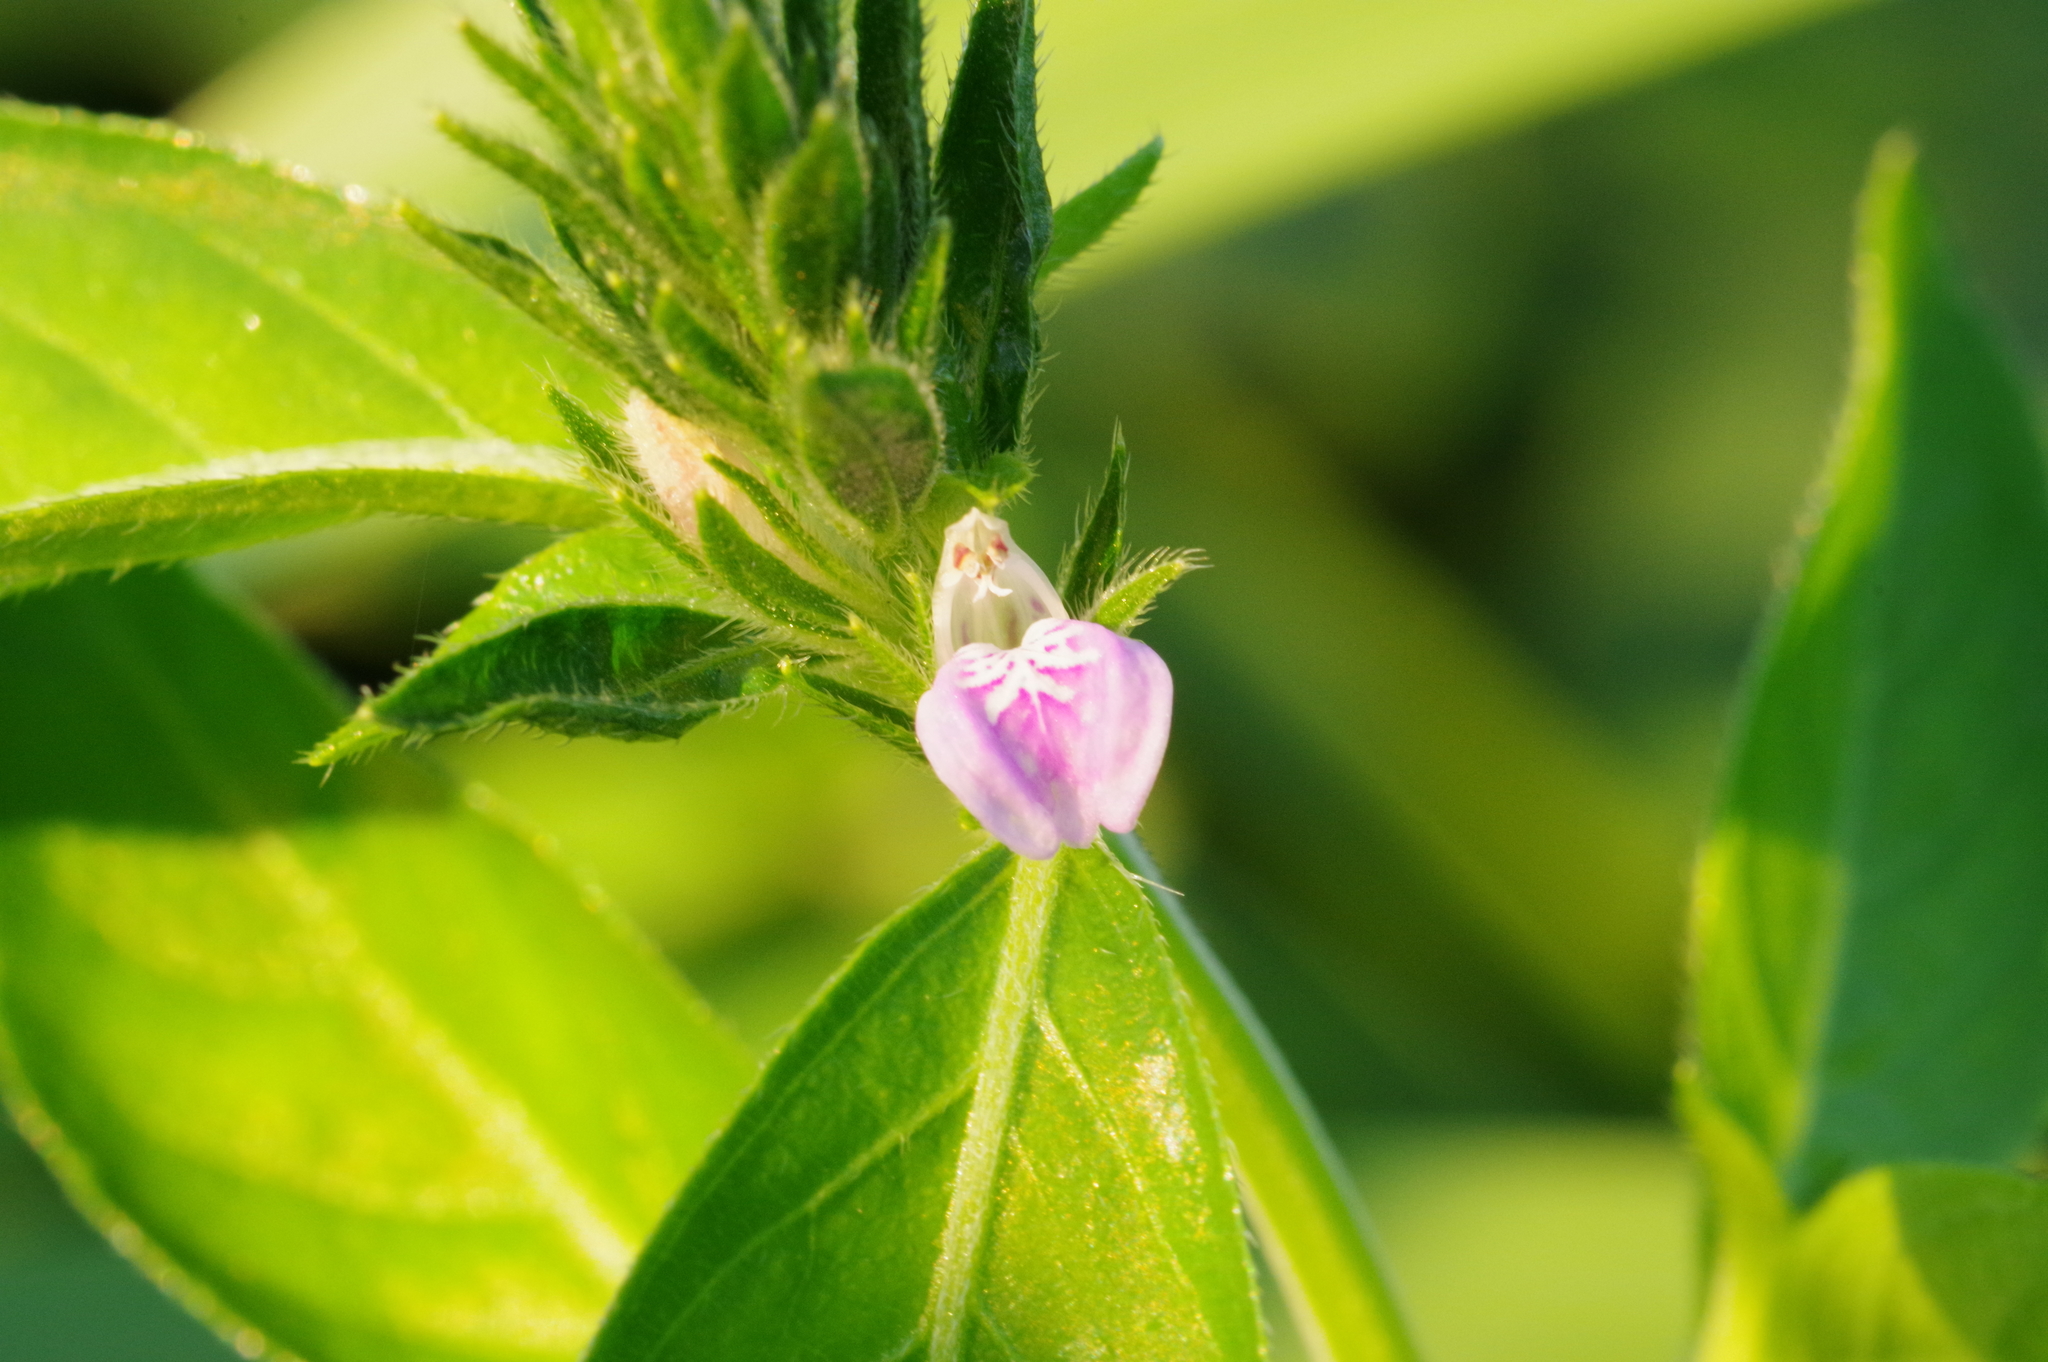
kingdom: Plantae
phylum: Tracheophyta
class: Magnoliopsida
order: Lamiales
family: Acanthaceae
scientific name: Acanthaceae
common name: Acanthaceae
